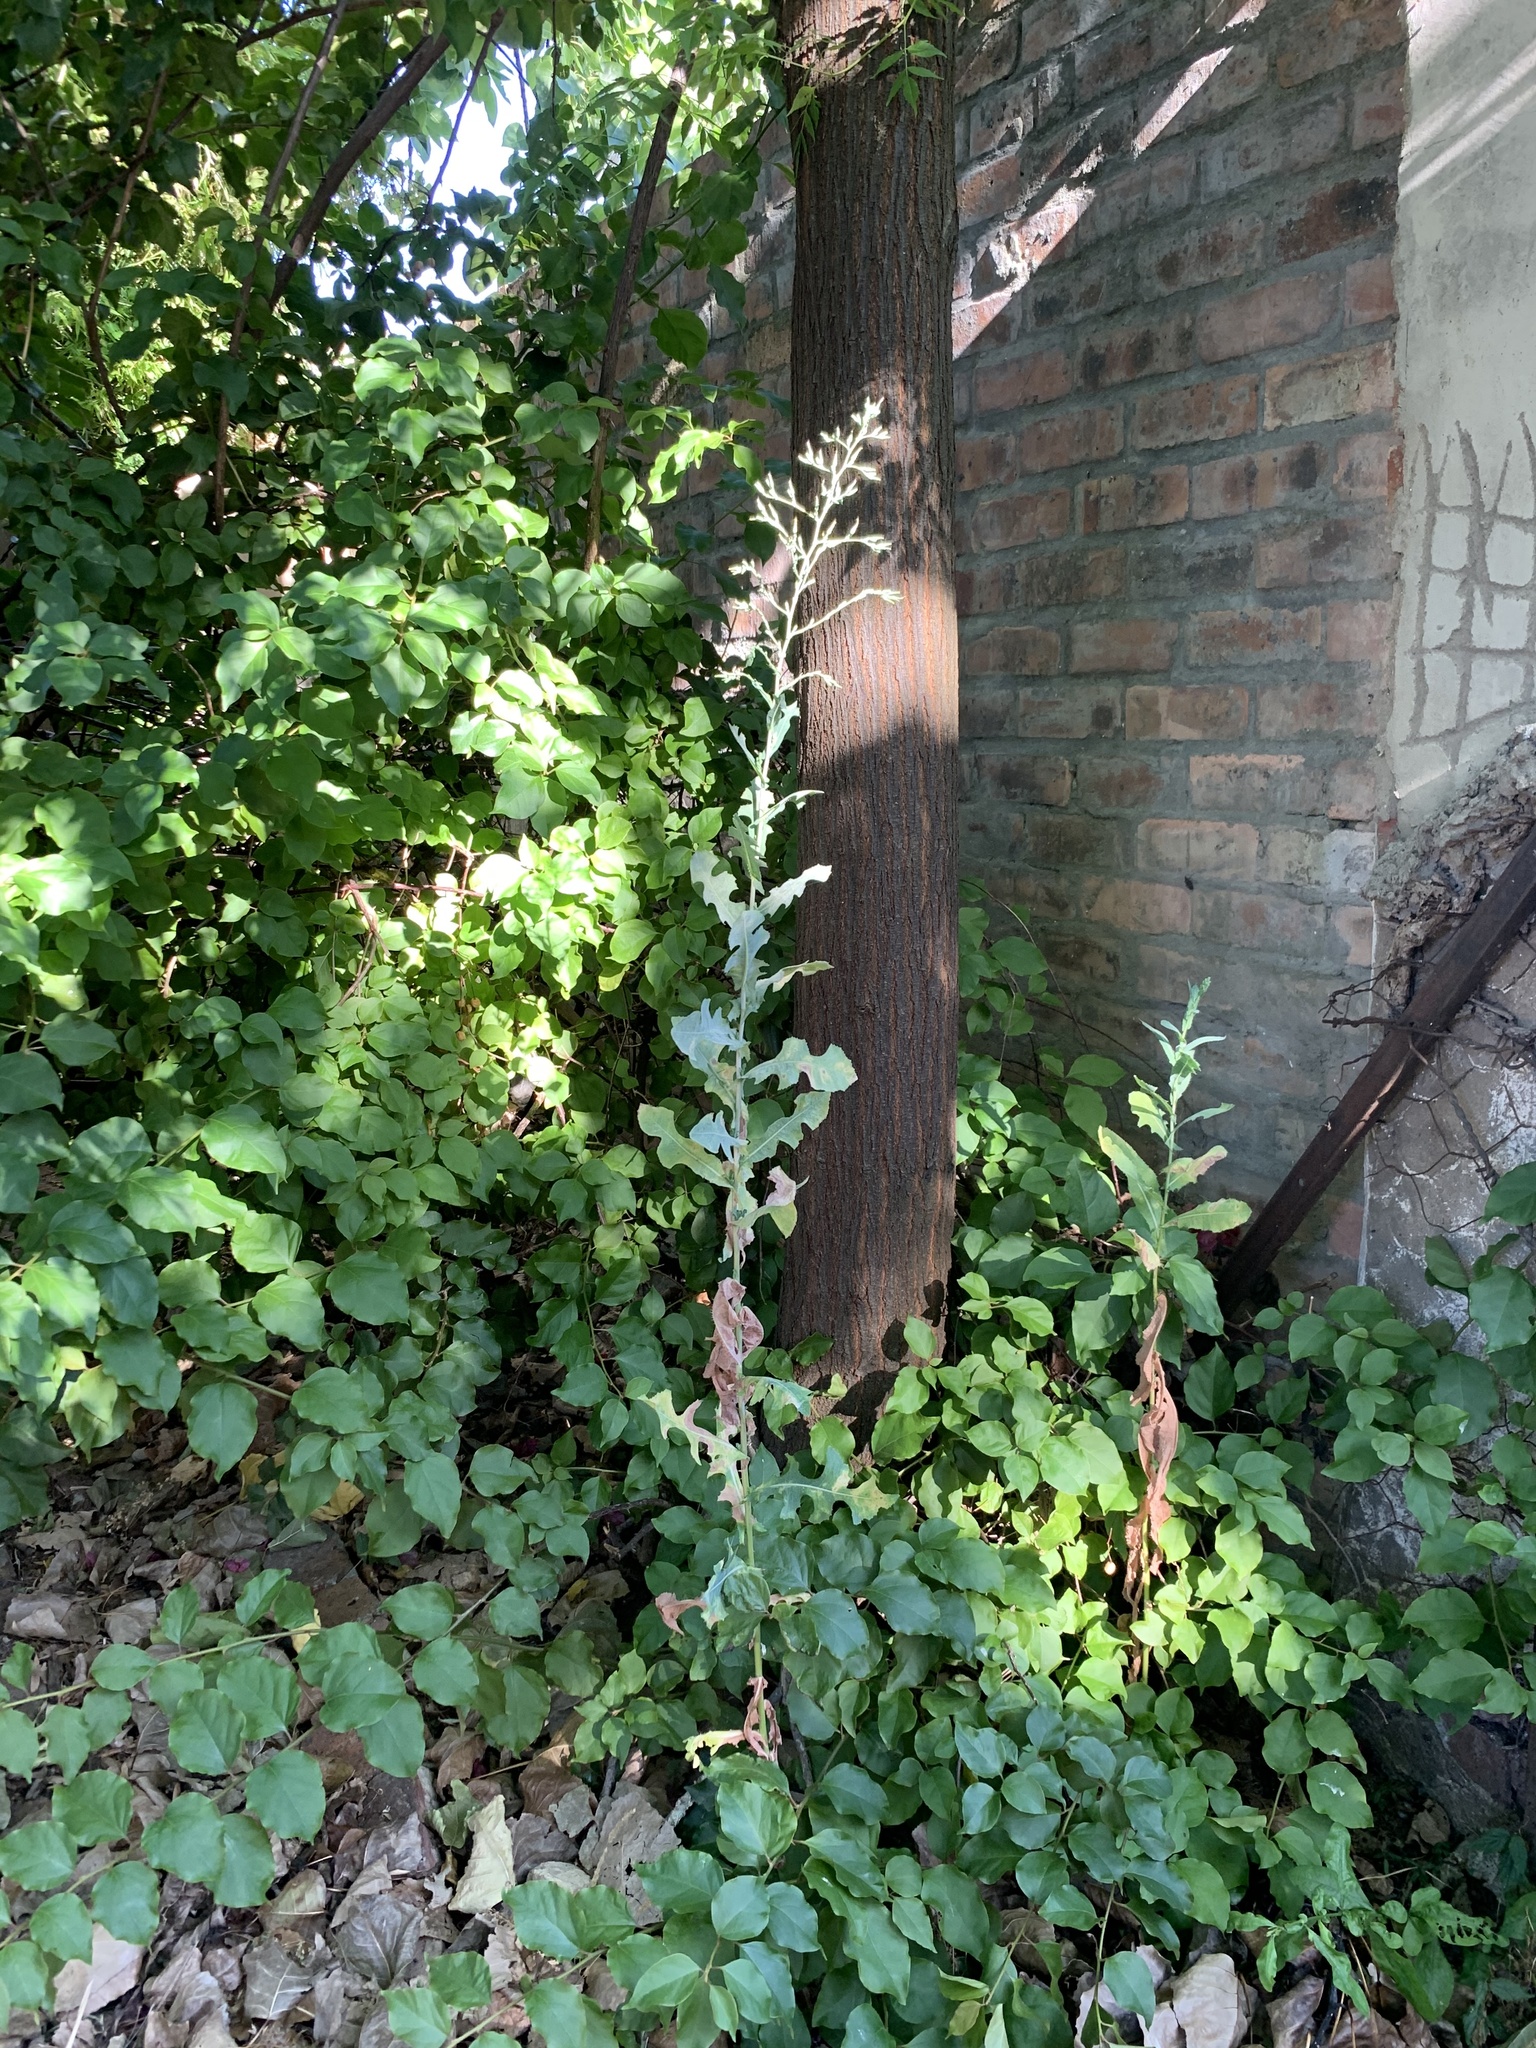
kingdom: Plantae
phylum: Tracheophyta
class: Magnoliopsida
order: Asterales
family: Asteraceae
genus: Lactuca
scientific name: Lactuca serriola
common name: Prickly lettuce
